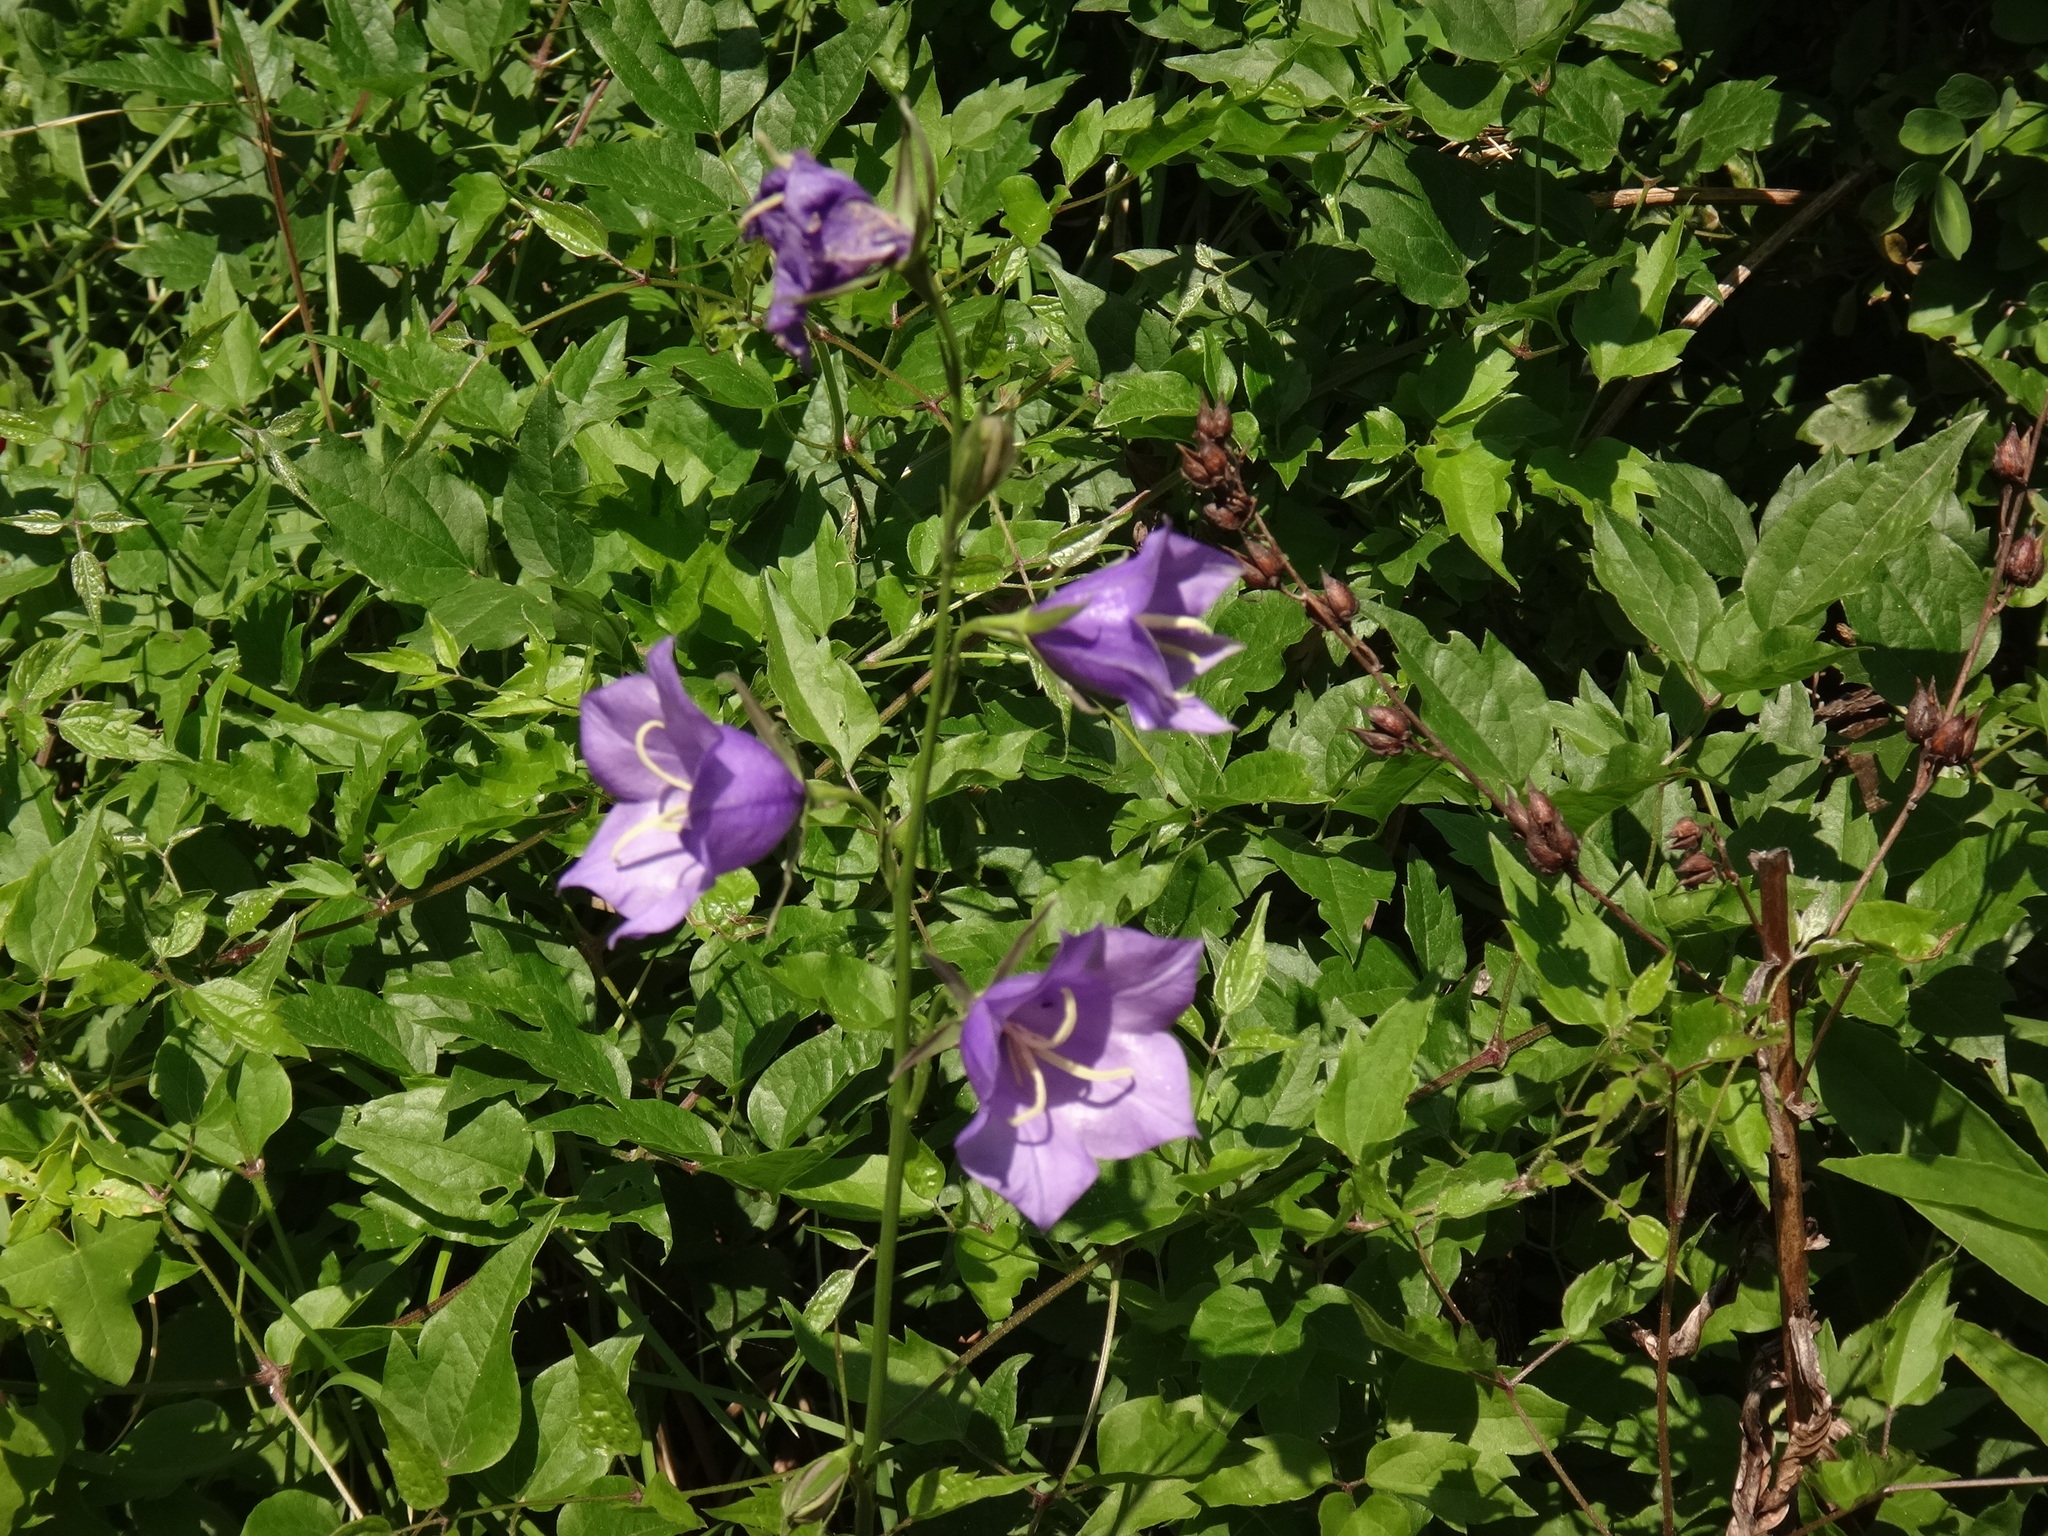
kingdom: Plantae
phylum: Tracheophyta
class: Magnoliopsida
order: Asterales
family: Campanulaceae
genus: Campanula
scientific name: Campanula persicifolia
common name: Peach-leaved bellflower
